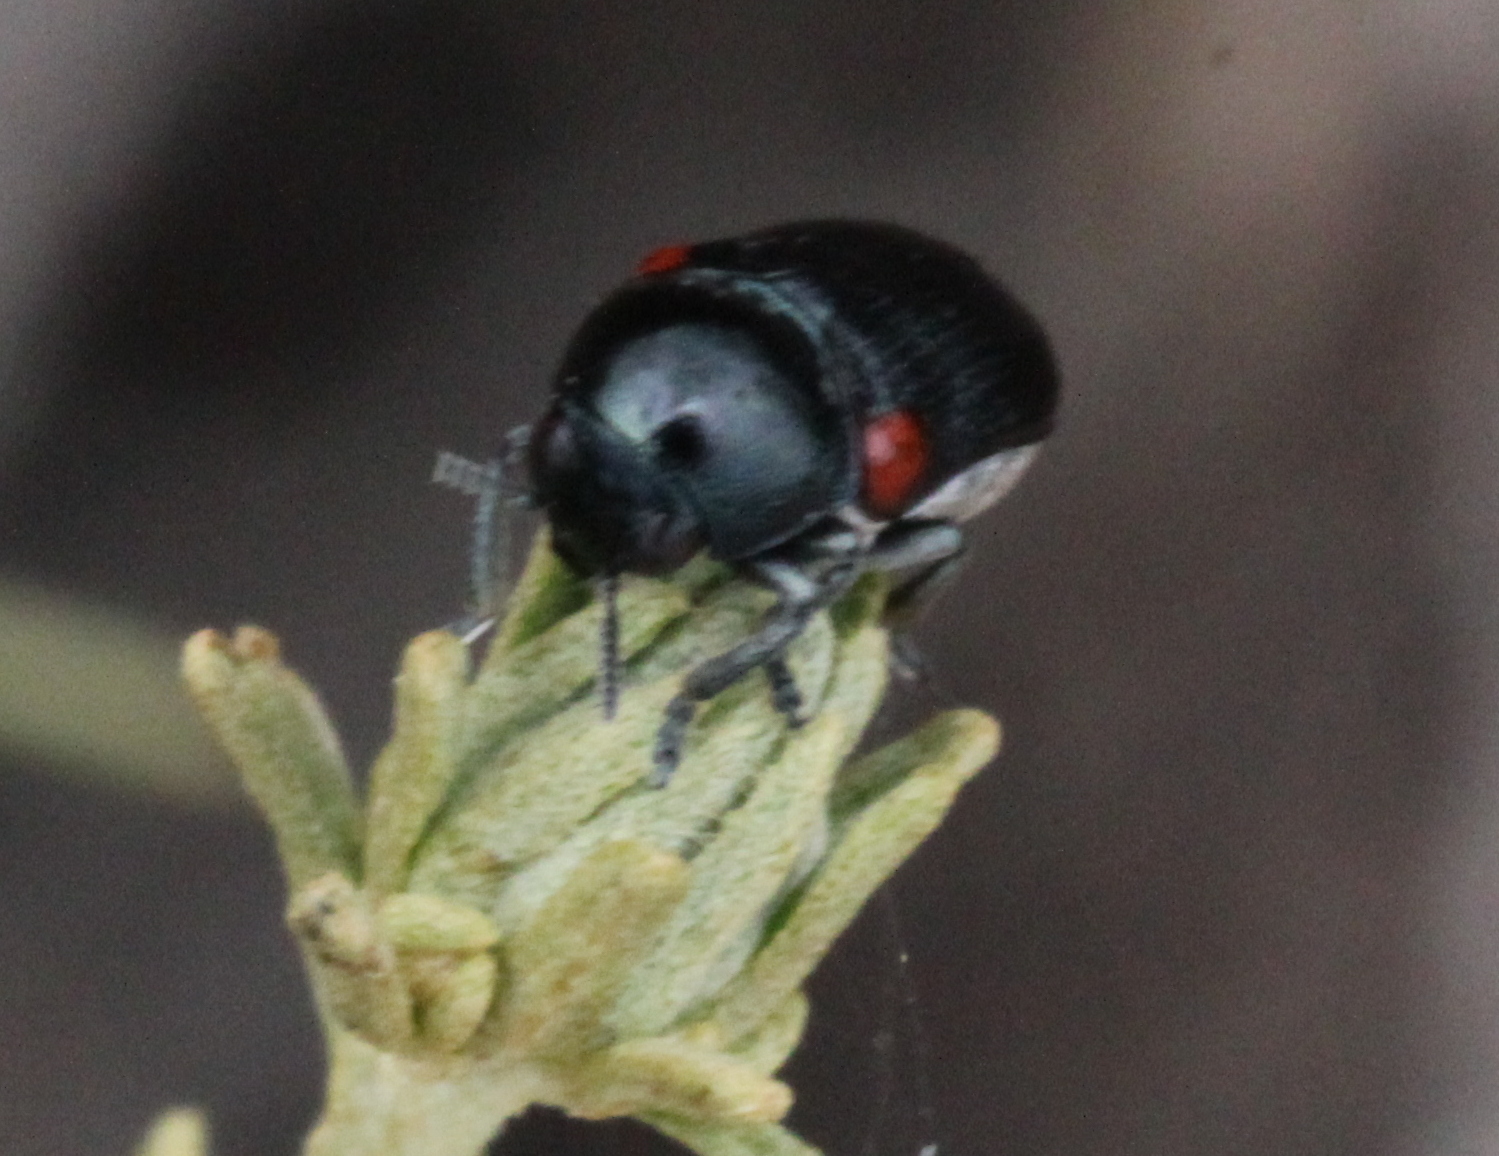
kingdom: Animalia
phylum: Arthropoda
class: Insecta
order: Coleoptera
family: Chrysomelidae
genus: Saxinis
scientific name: Saxinis deserticola
